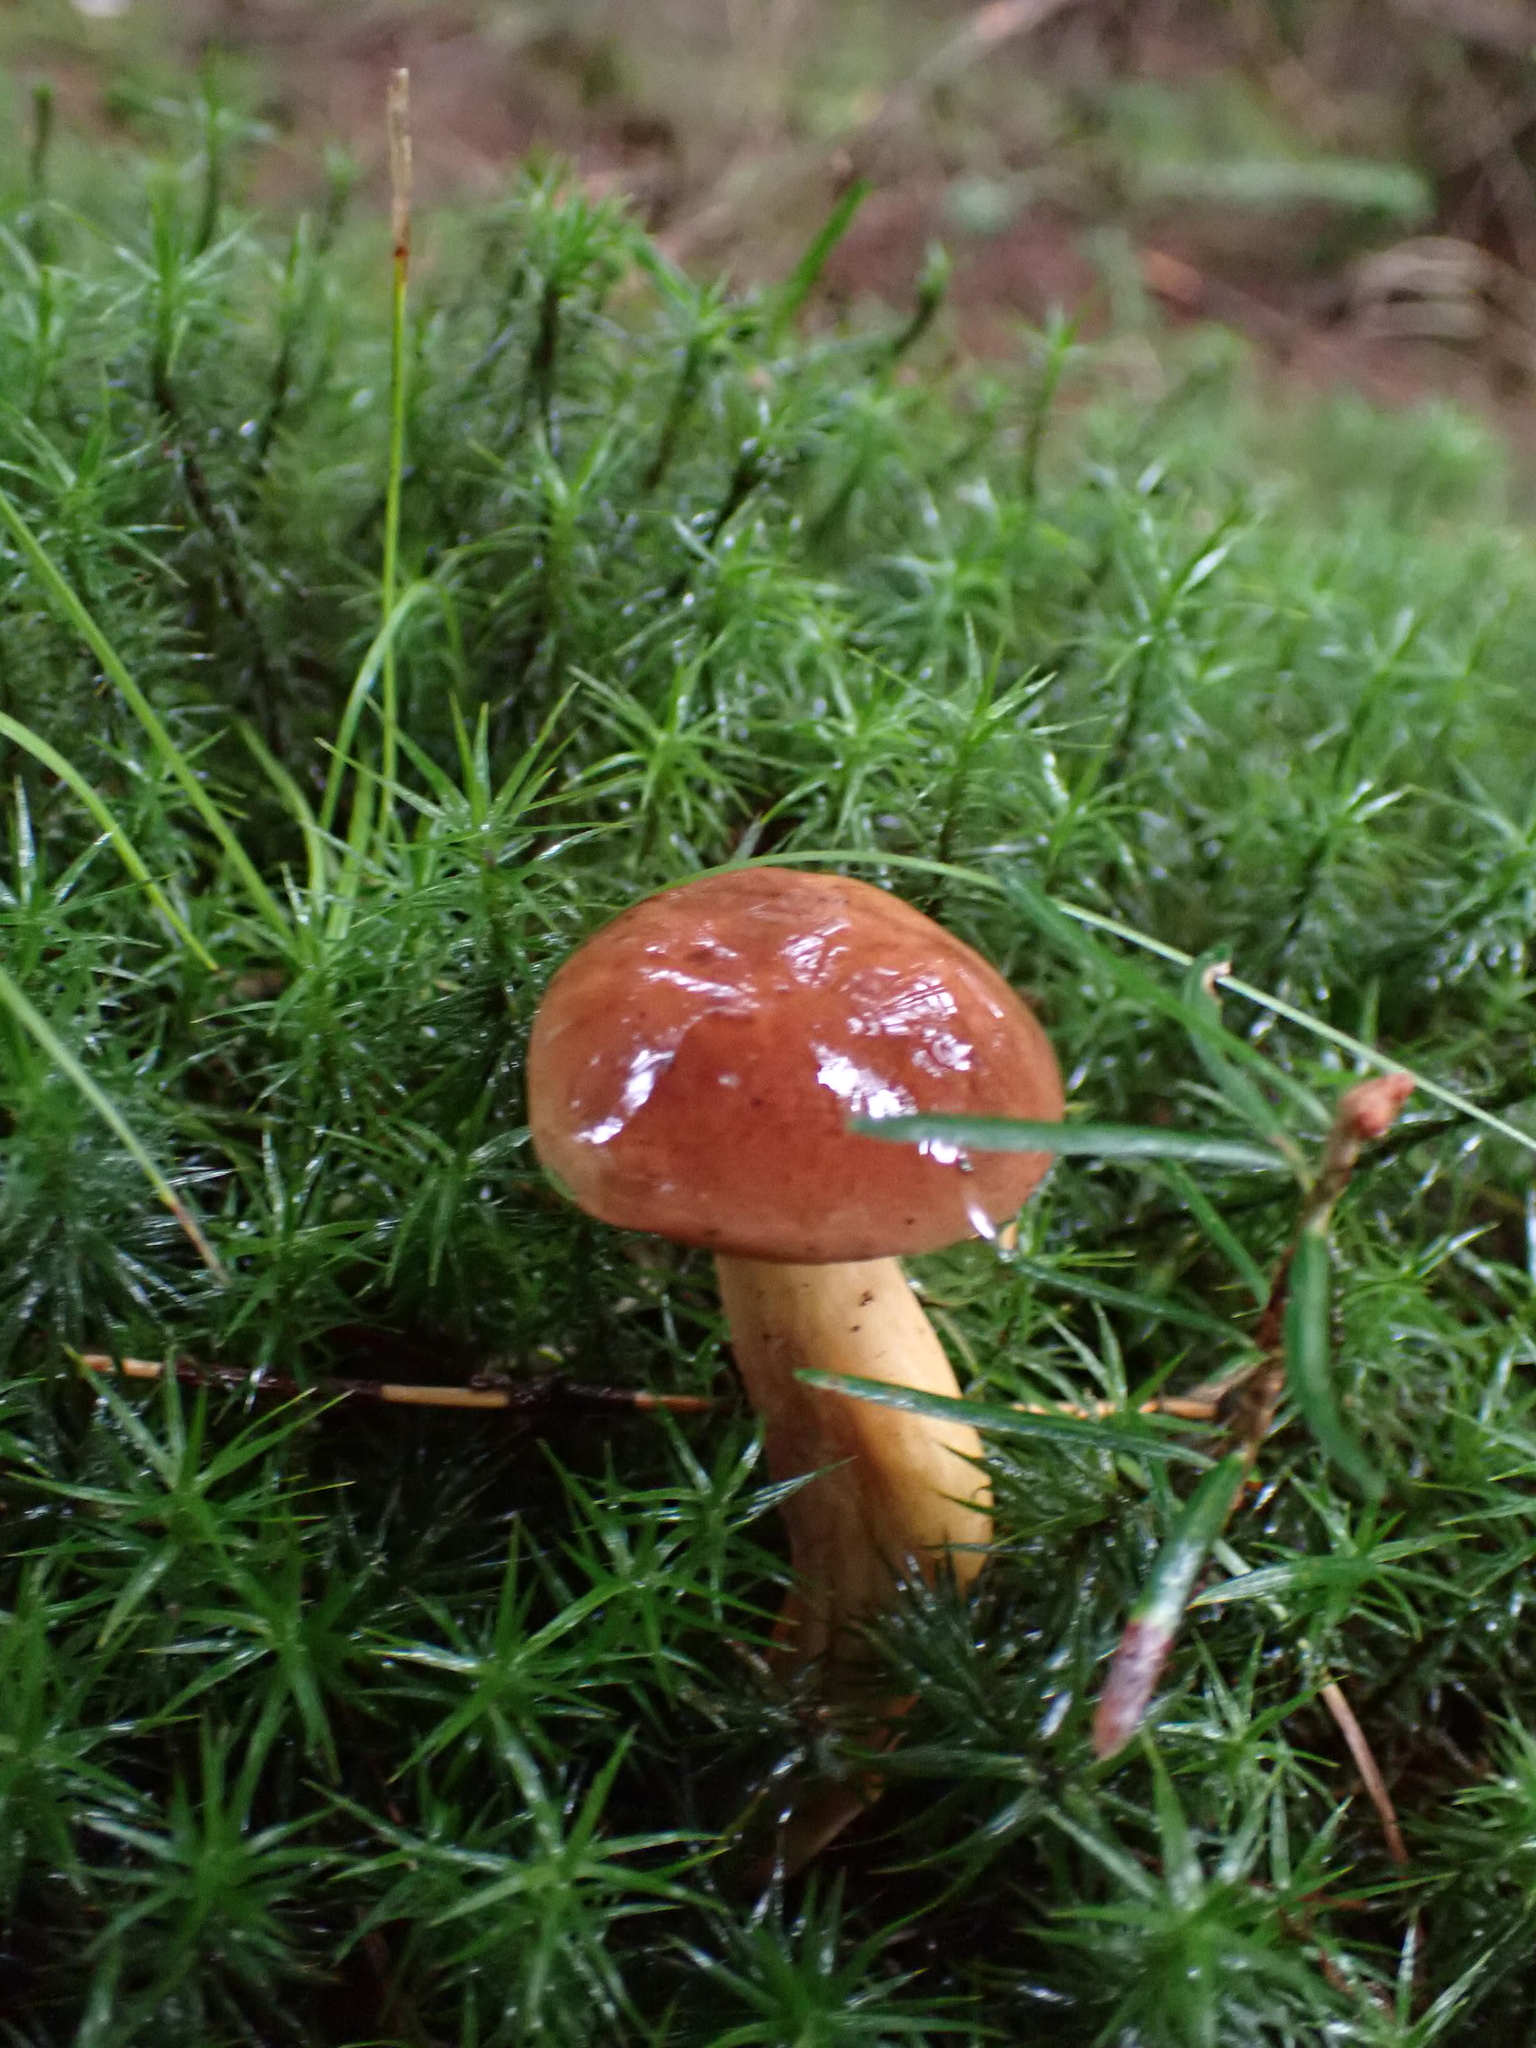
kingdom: Fungi
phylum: Basidiomycota
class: Agaricomycetes
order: Boletales
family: Boletaceae
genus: Imleria
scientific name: Imleria badia
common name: Bay bolete
